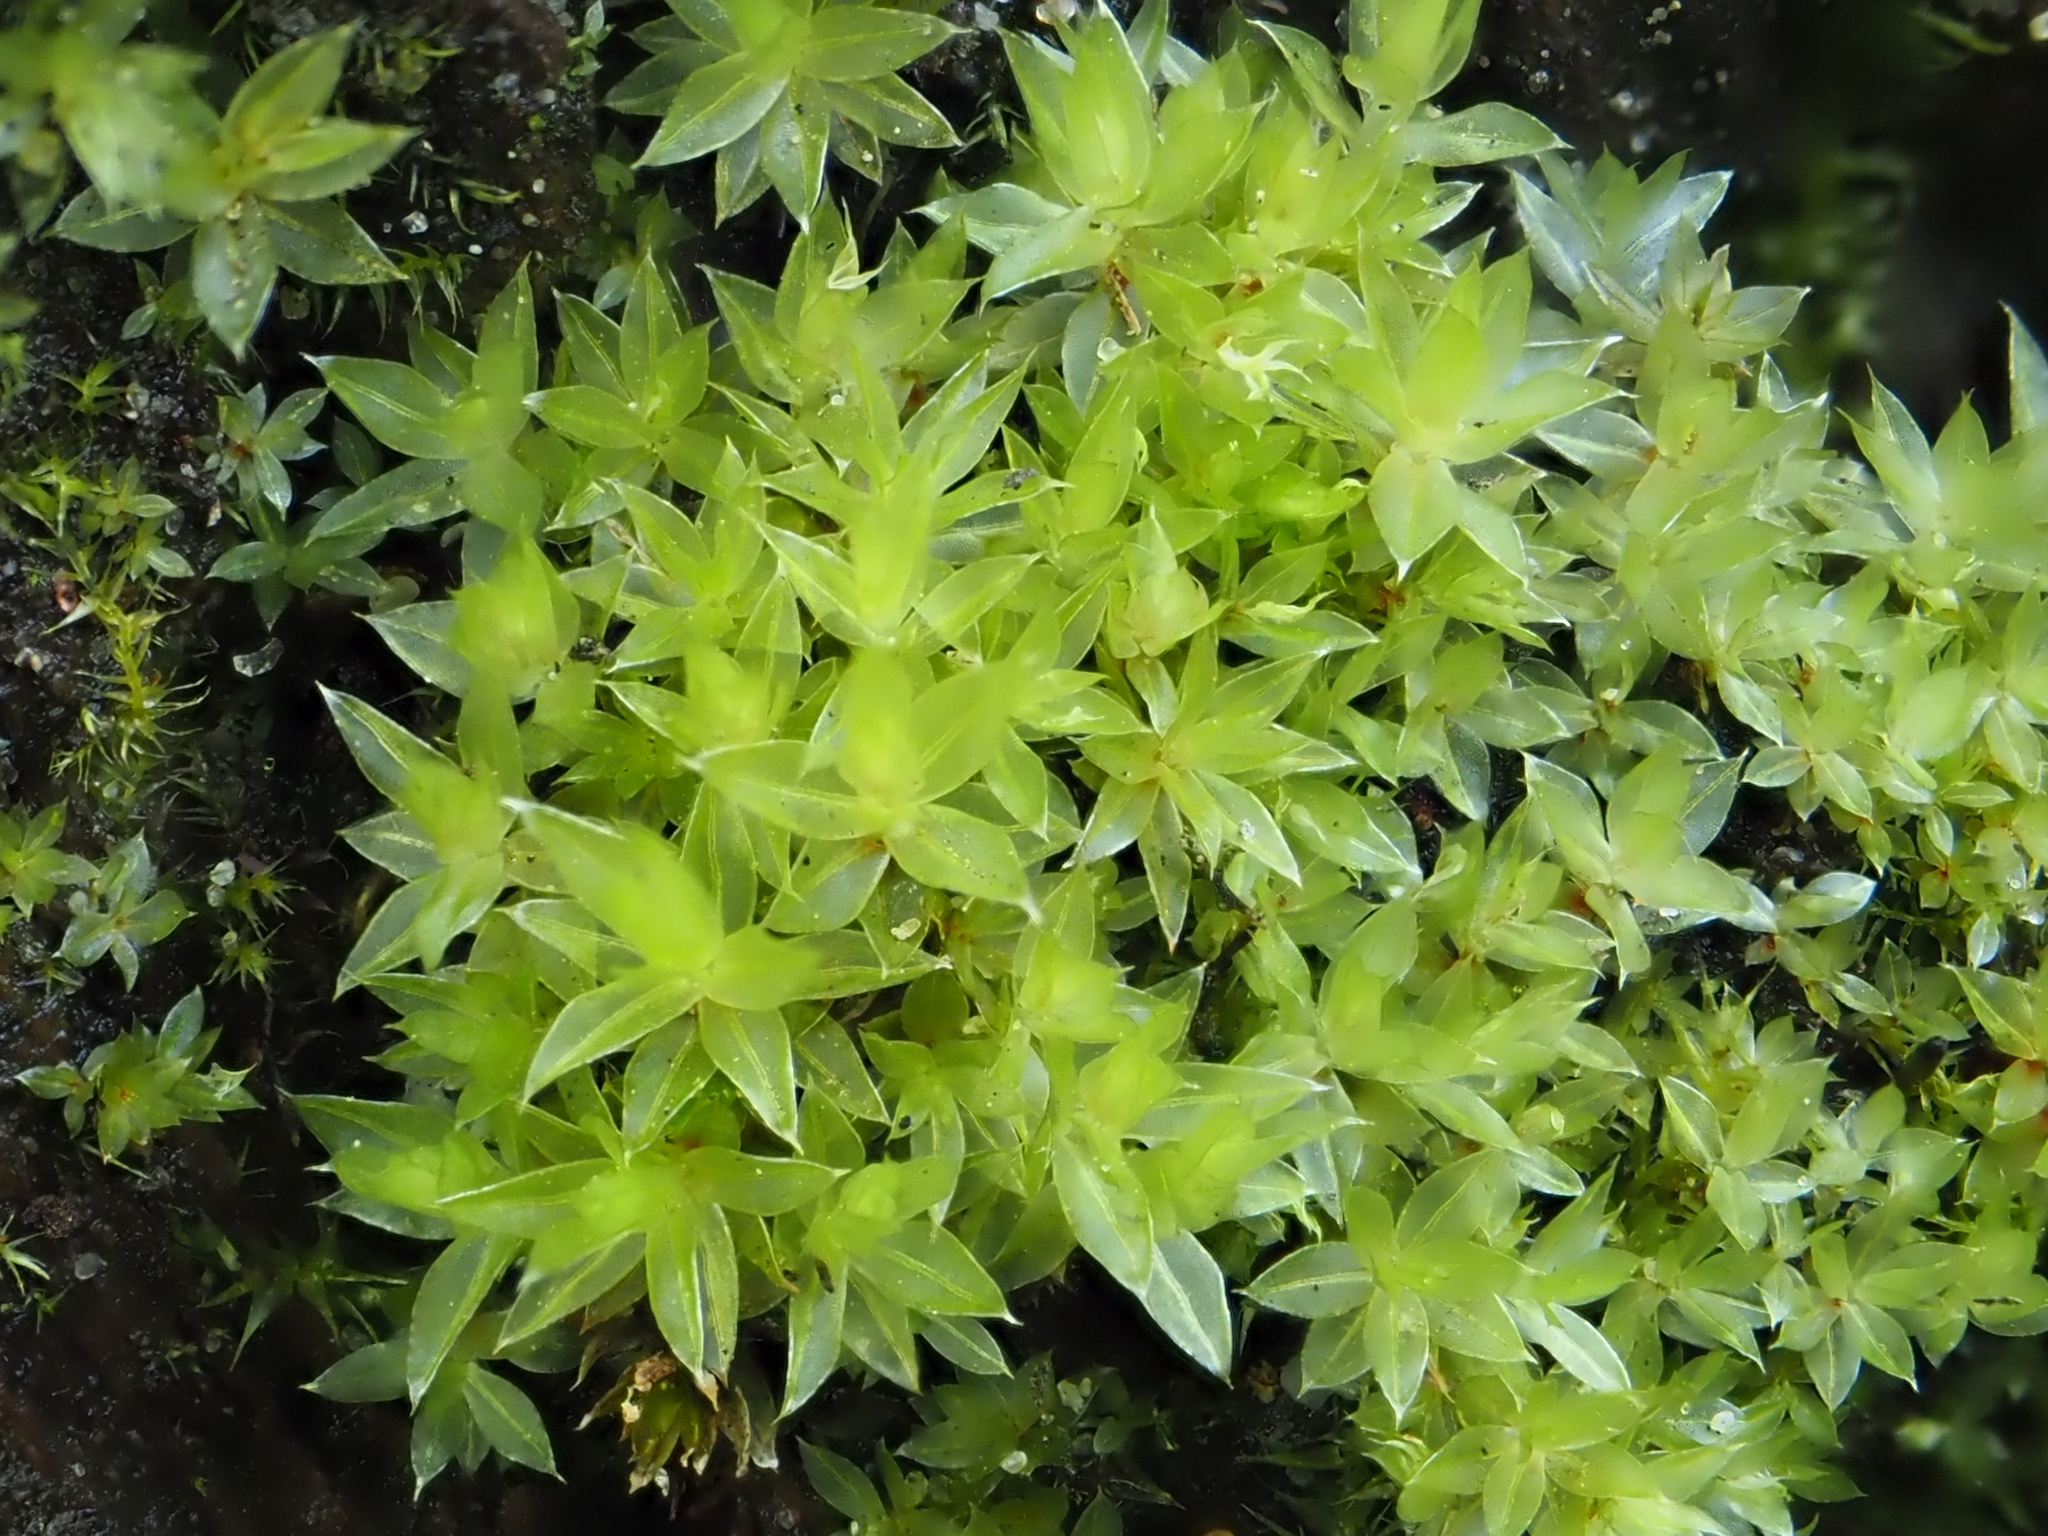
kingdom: Plantae
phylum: Bryophyta
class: Bryopsida
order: Bryales
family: Mniaceae
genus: Mnium
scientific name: Mnium hornum
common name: Swan's-neck leafy moss
